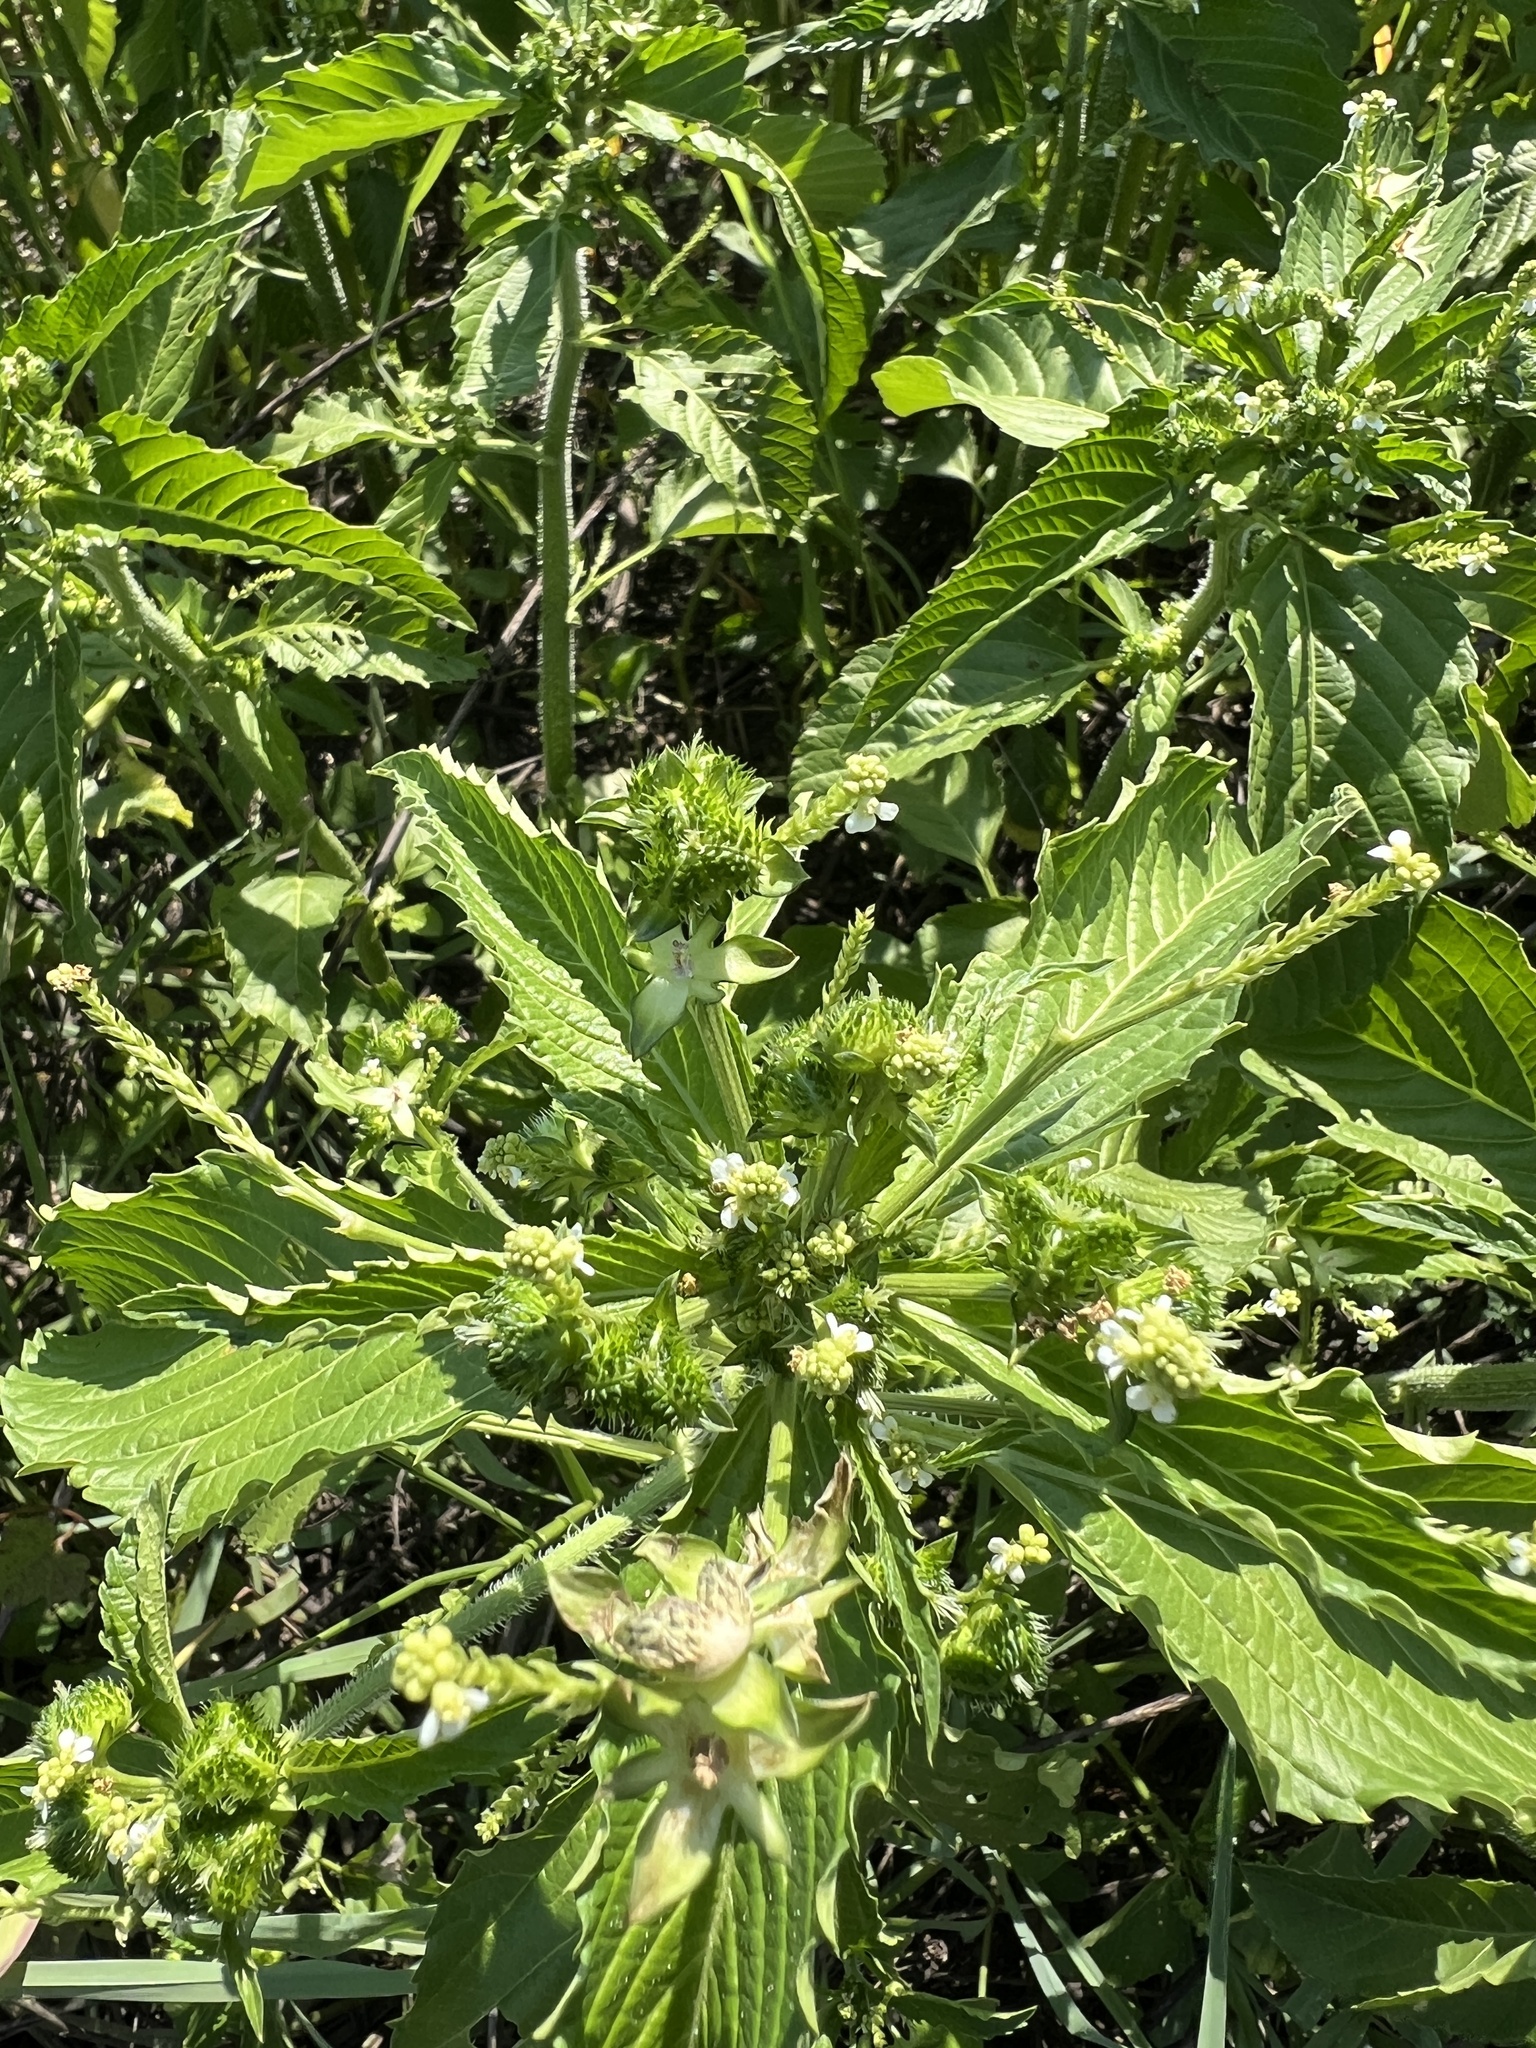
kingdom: Plantae
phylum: Tracheophyta
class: Magnoliopsida
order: Malpighiales
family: Euphorbiaceae
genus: Caperonia
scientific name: Caperonia fistulosa
